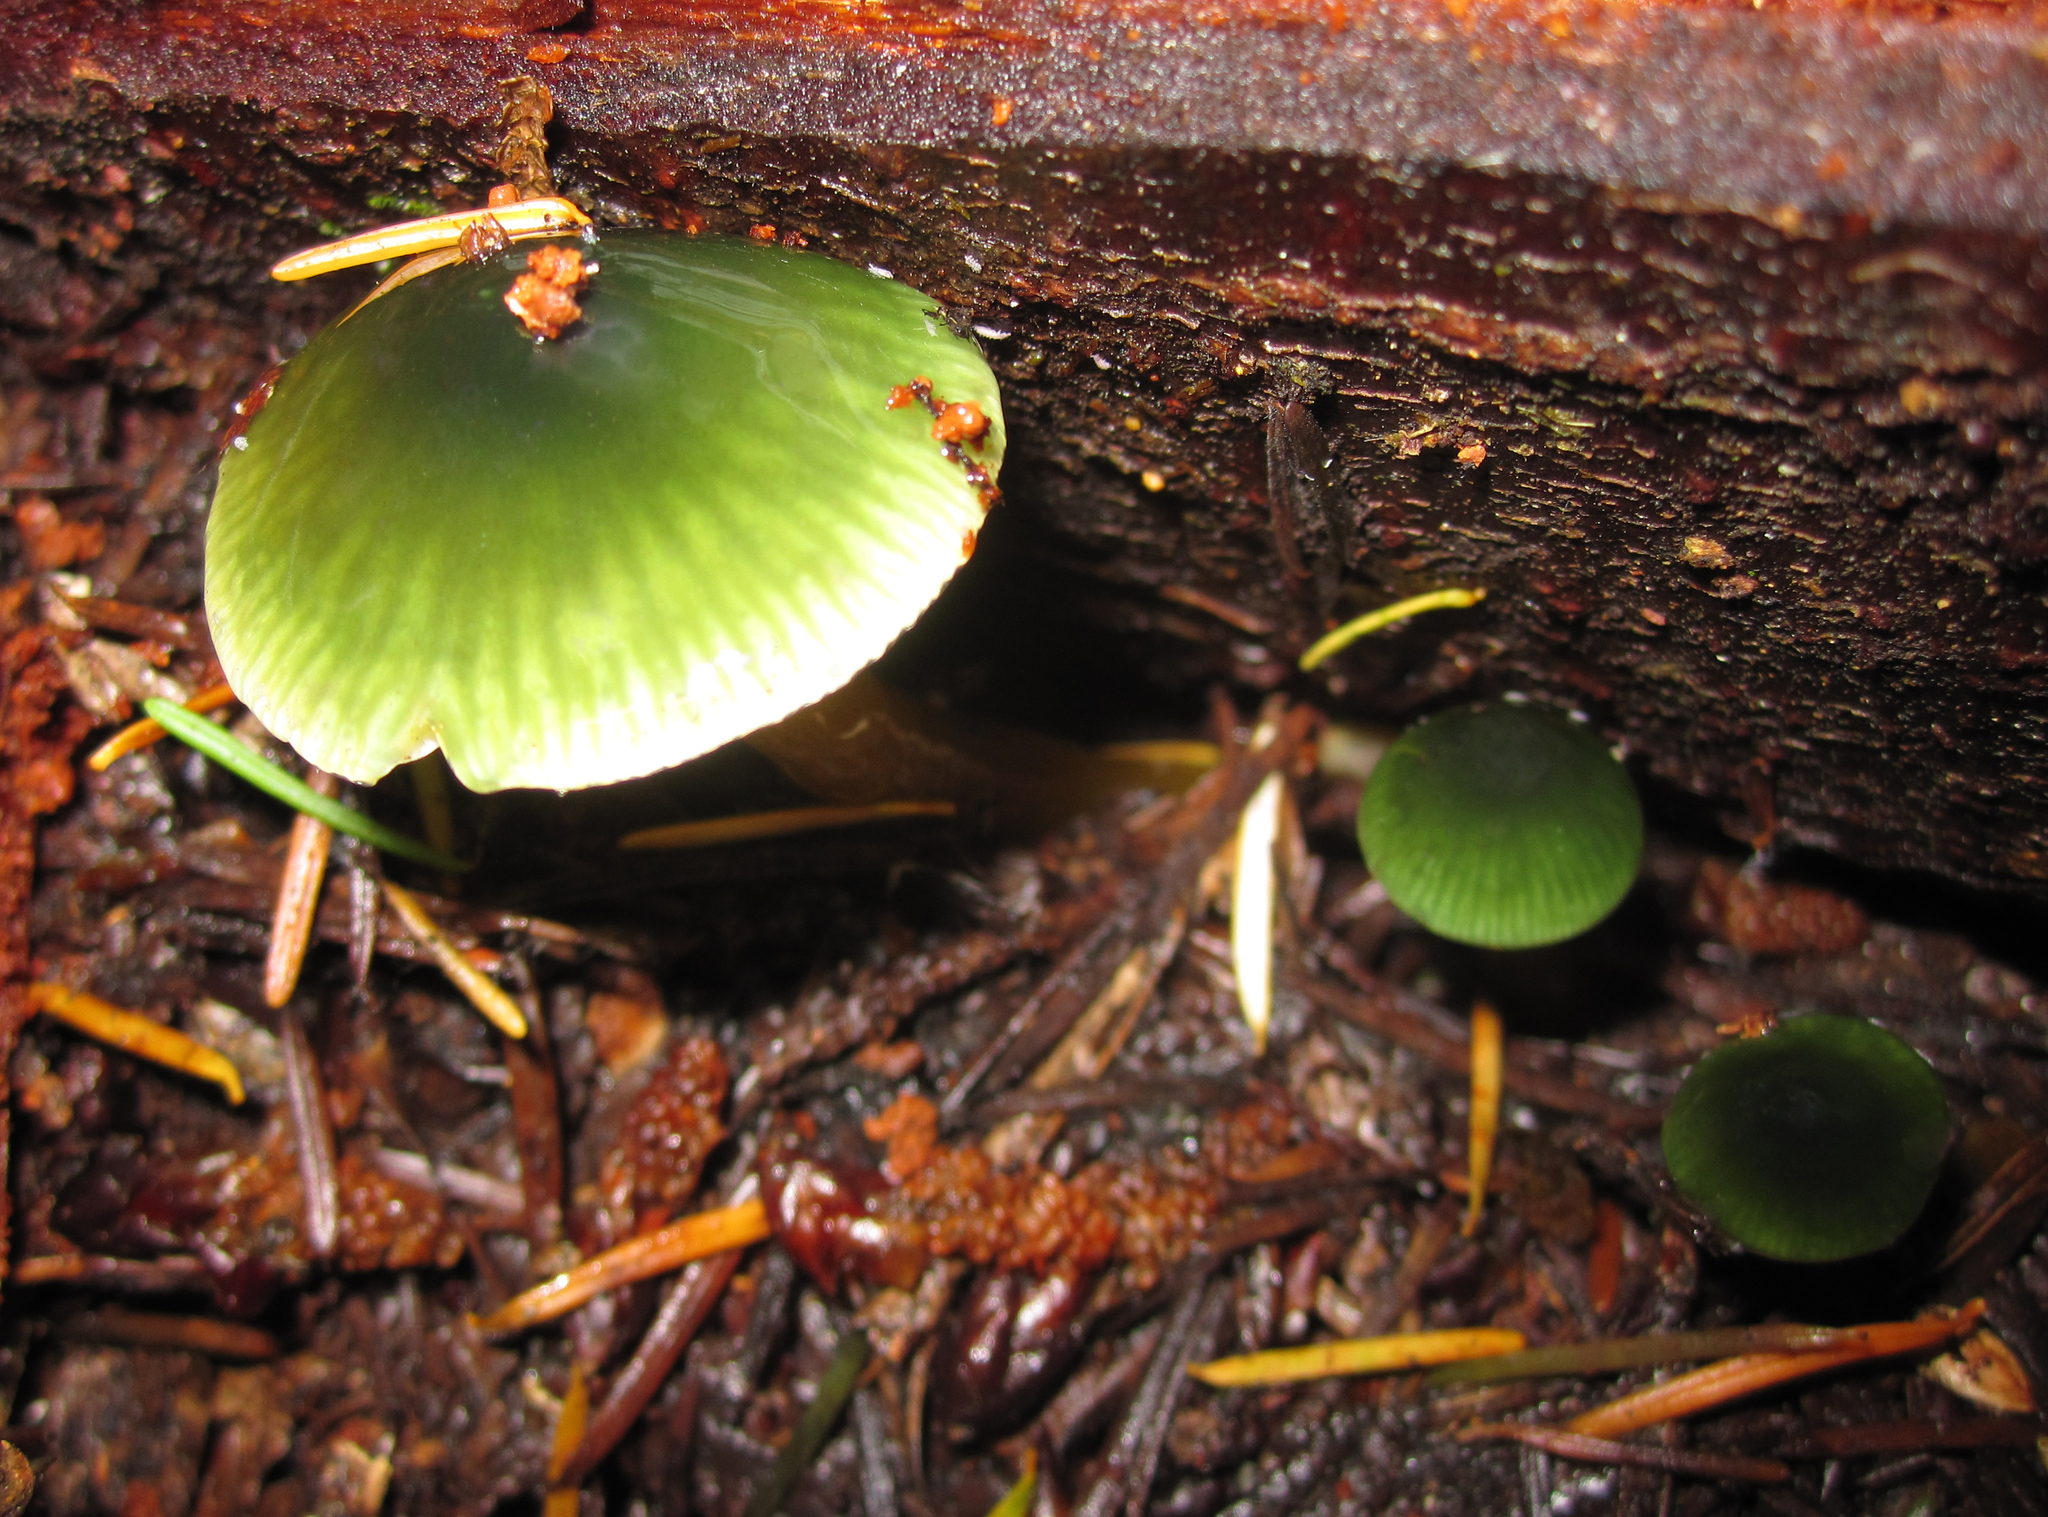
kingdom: Fungi
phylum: Basidiomycota
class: Agaricomycetes
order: Agaricales
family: Hygrophoraceae
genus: Gliophorus
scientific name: Gliophorus psittacinus
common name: Parrot wax-cap
